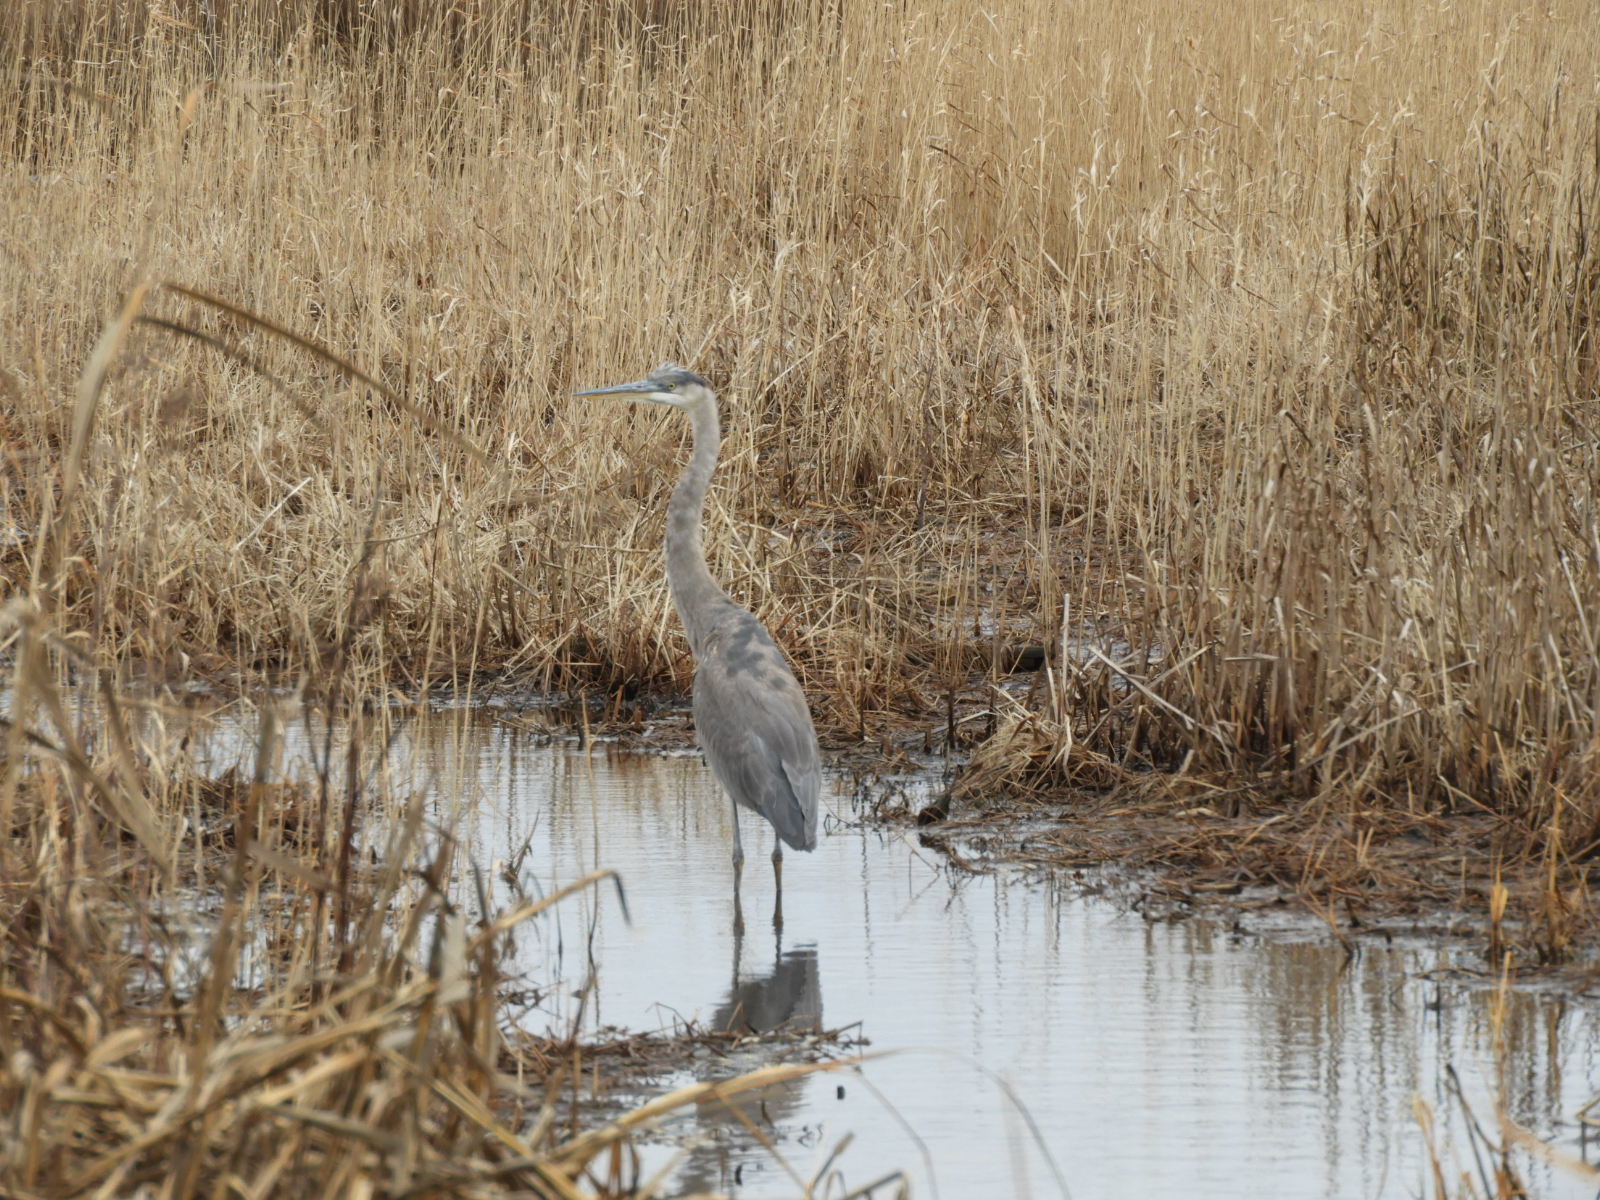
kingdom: Animalia
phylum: Chordata
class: Aves
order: Pelecaniformes
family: Ardeidae
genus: Ardea
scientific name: Ardea herodias
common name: Great blue heron
